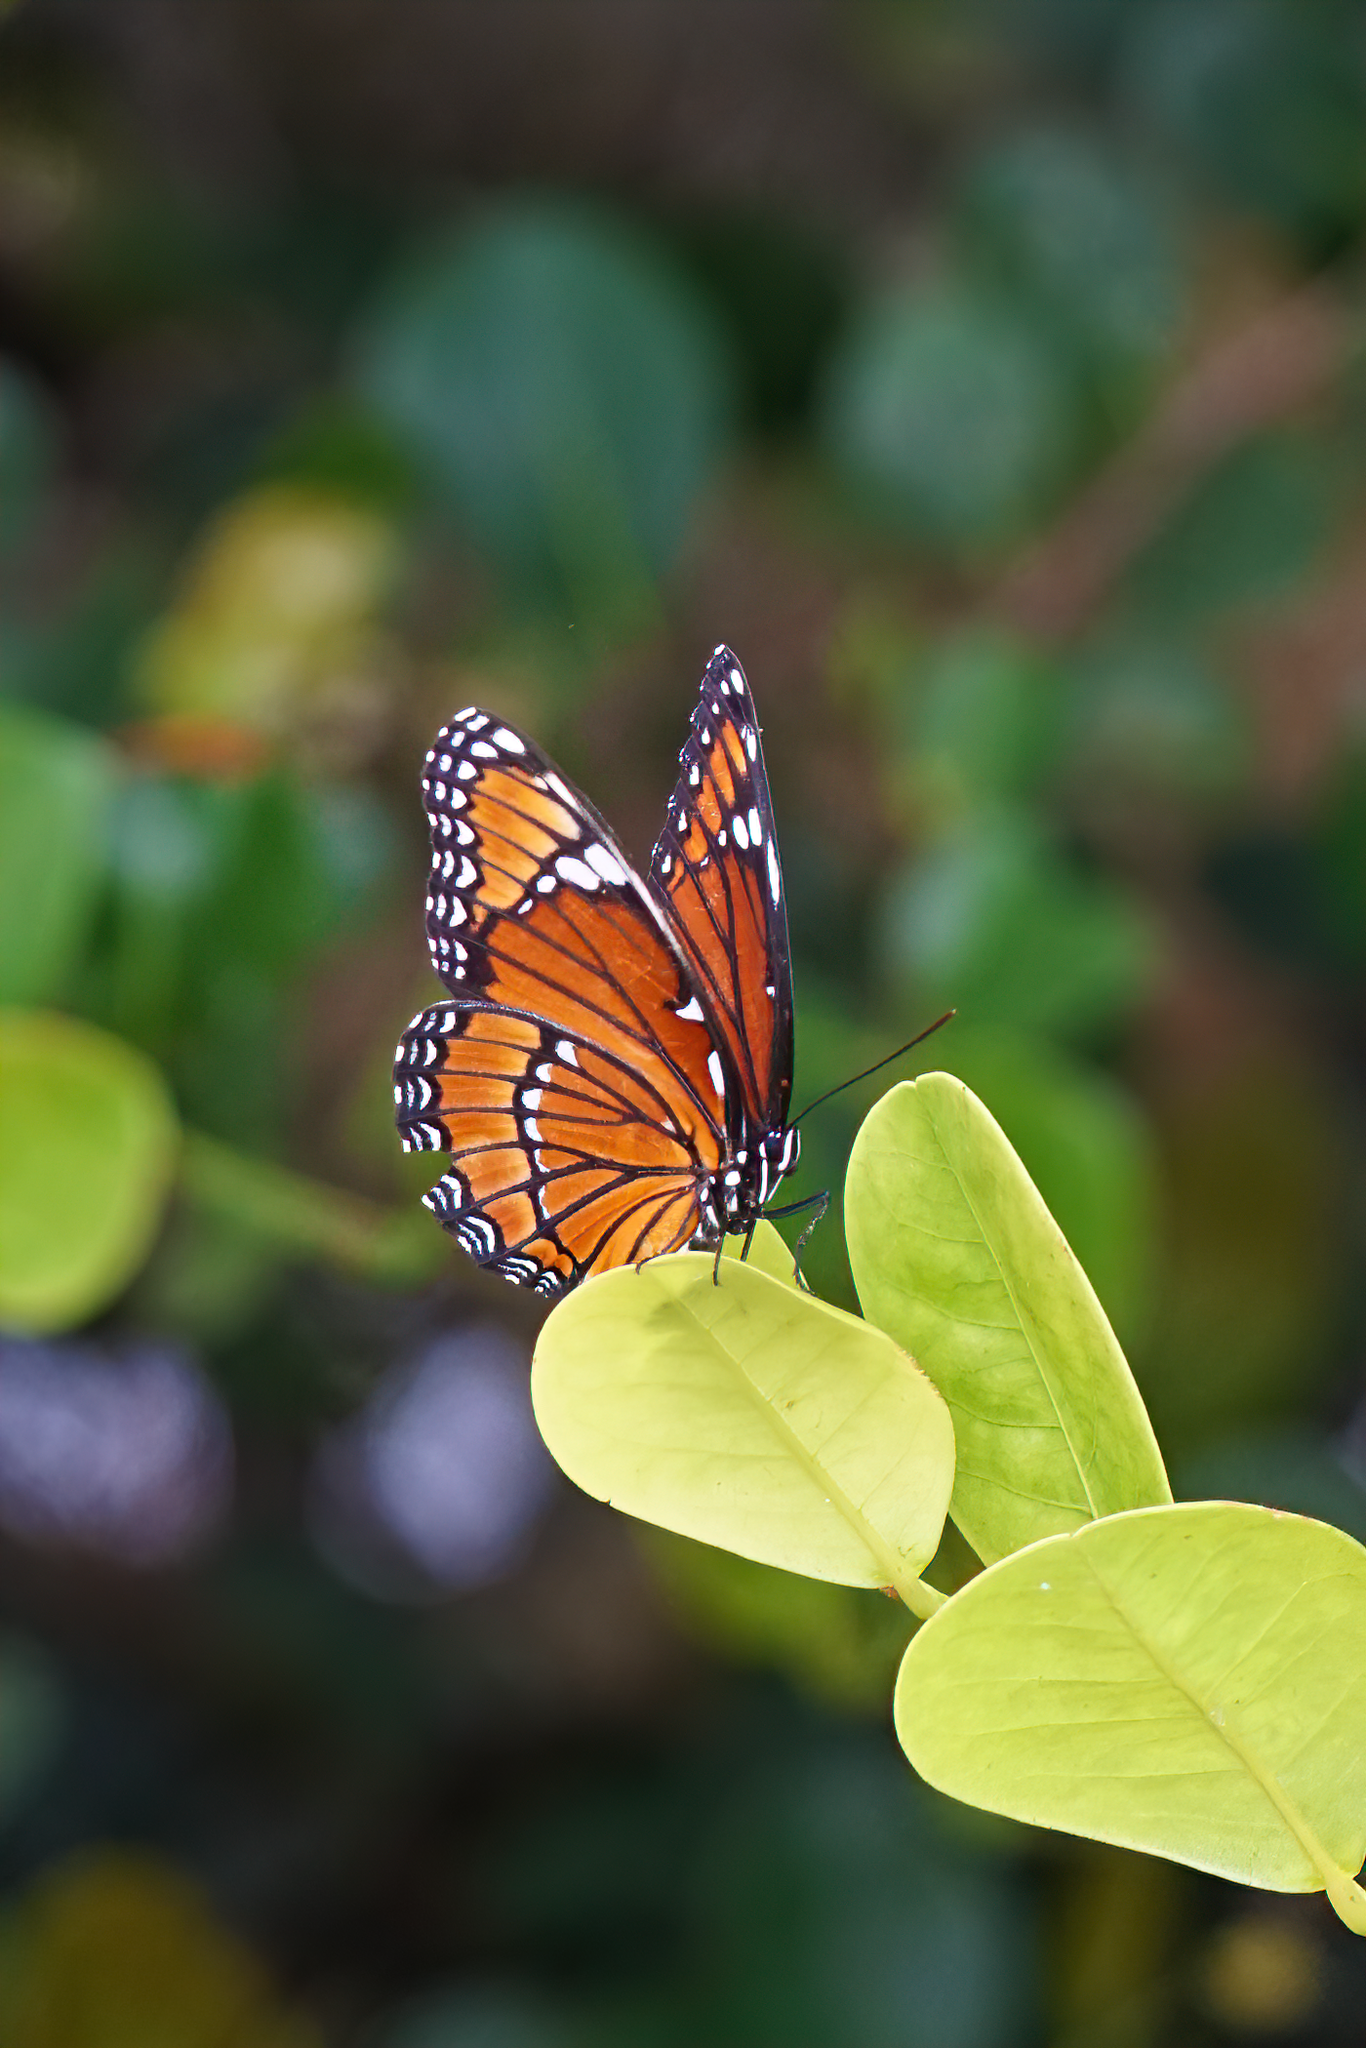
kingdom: Animalia
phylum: Arthropoda
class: Insecta
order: Lepidoptera
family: Nymphalidae
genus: Limenitis
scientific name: Limenitis archippus
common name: Viceroy
